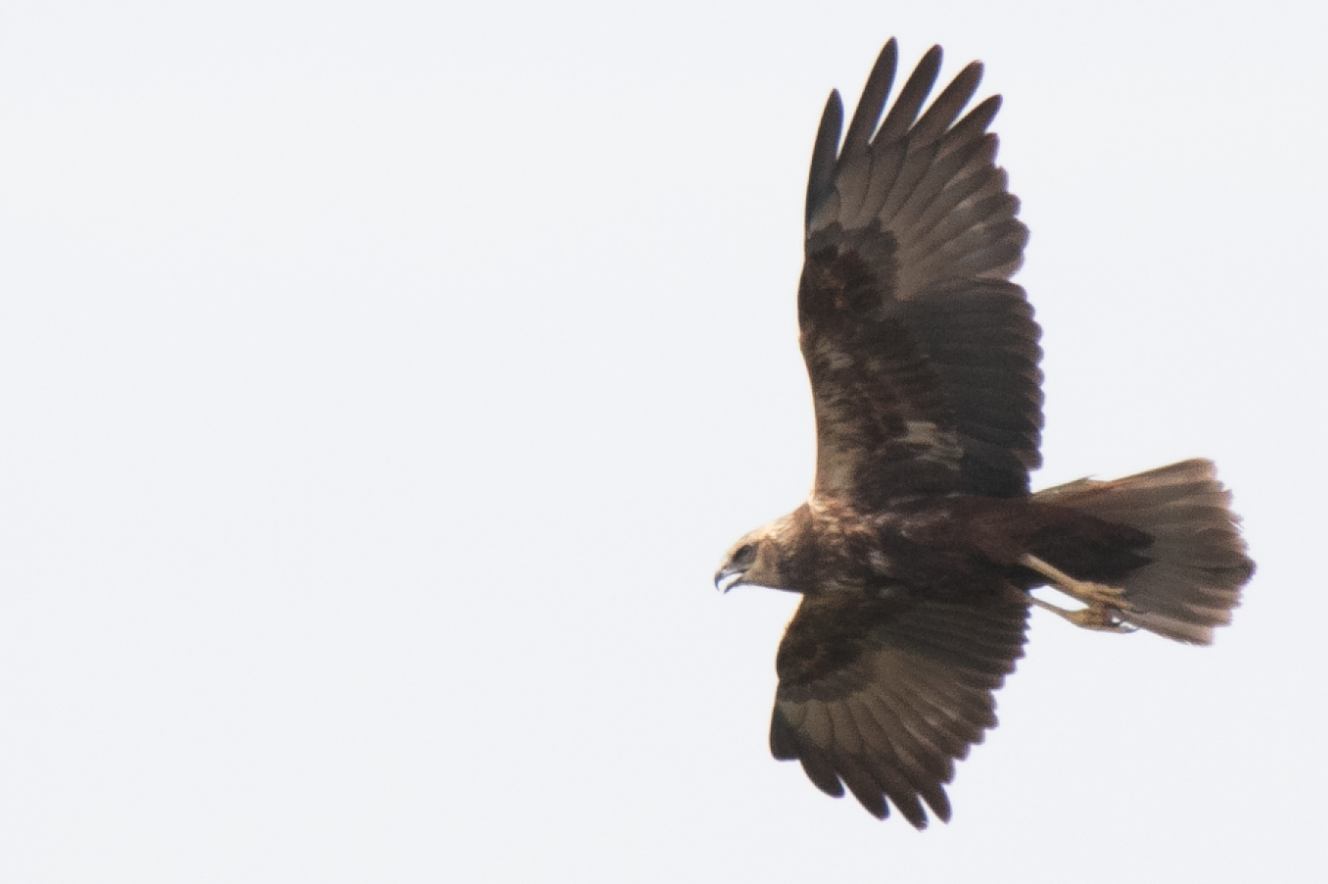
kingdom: Animalia
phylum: Chordata
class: Aves
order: Accipitriformes
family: Accipitridae
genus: Circus
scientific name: Circus aeruginosus
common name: Western marsh harrier
